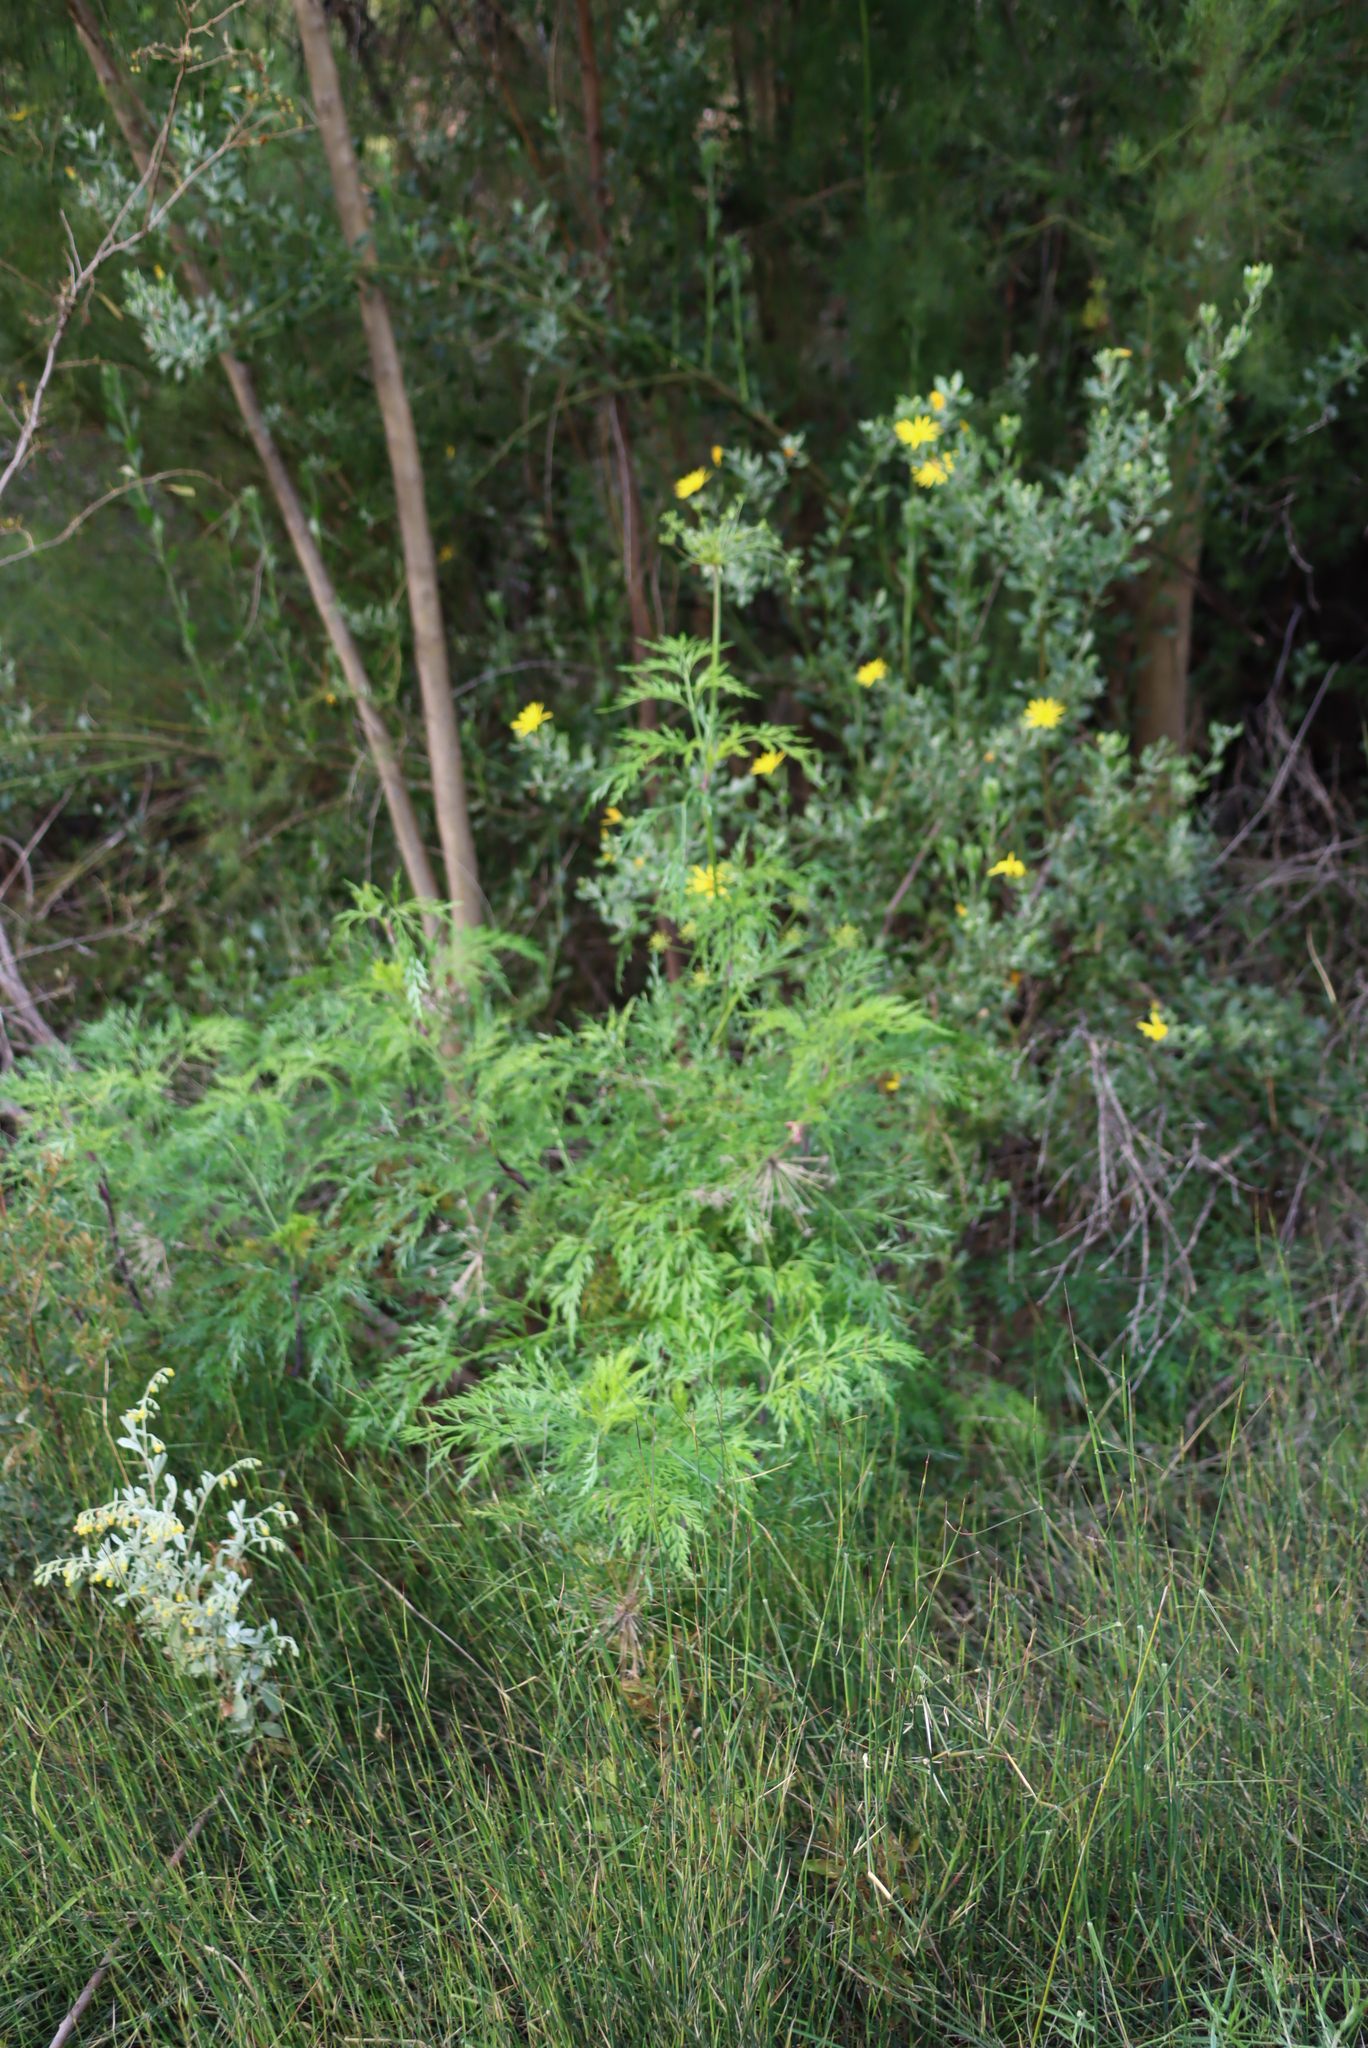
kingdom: Plantae
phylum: Tracheophyta
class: Magnoliopsida
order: Apiales
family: Apiaceae
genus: Notobubon
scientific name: Notobubon gummiferum
